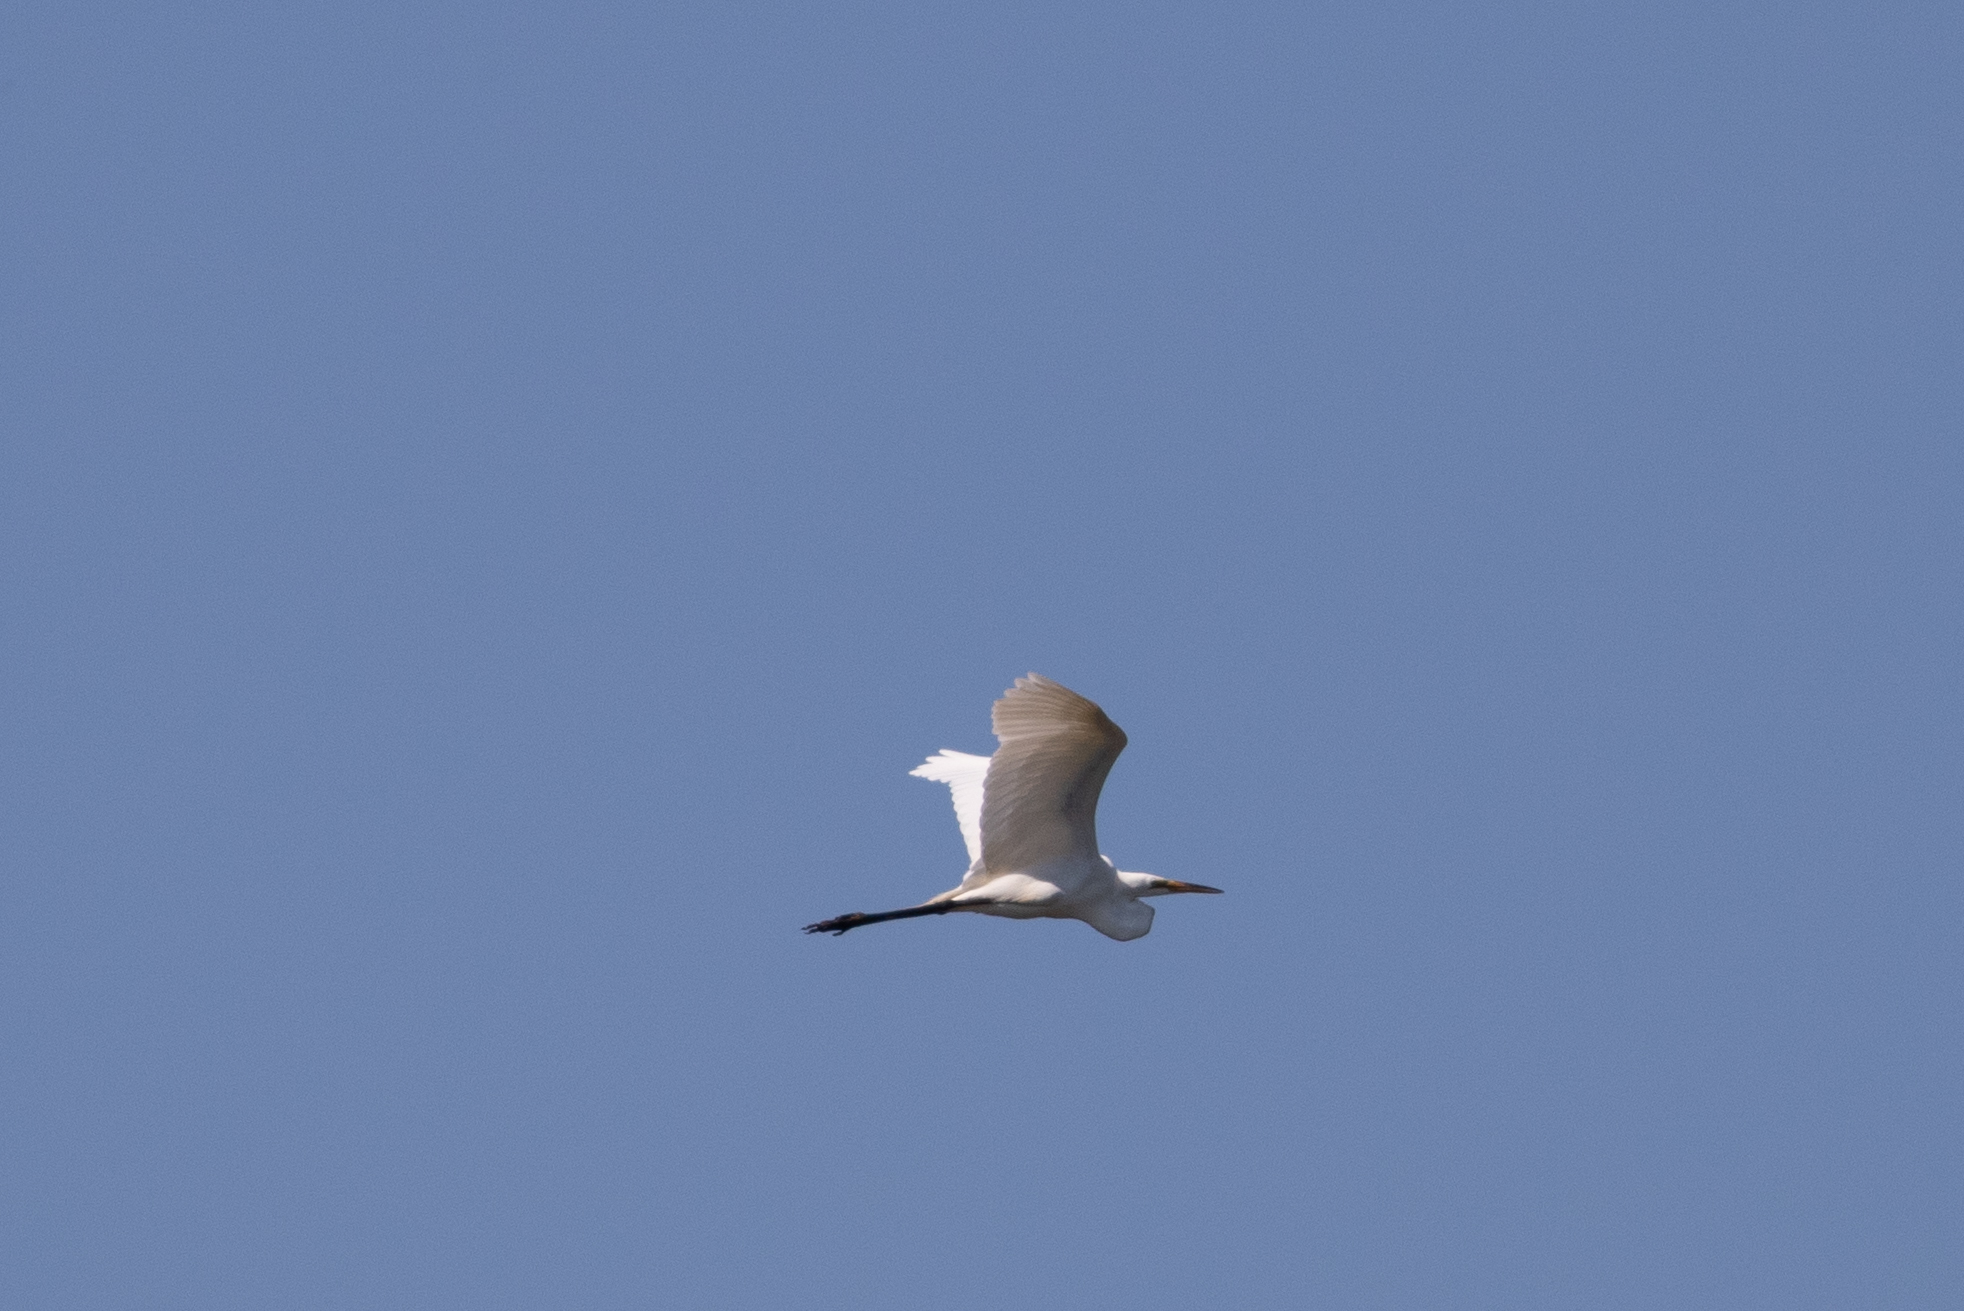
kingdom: Animalia
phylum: Chordata
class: Aves
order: Pelecaniformes
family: Ardeidae
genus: Ardea
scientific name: Ardea alba
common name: Great egret
